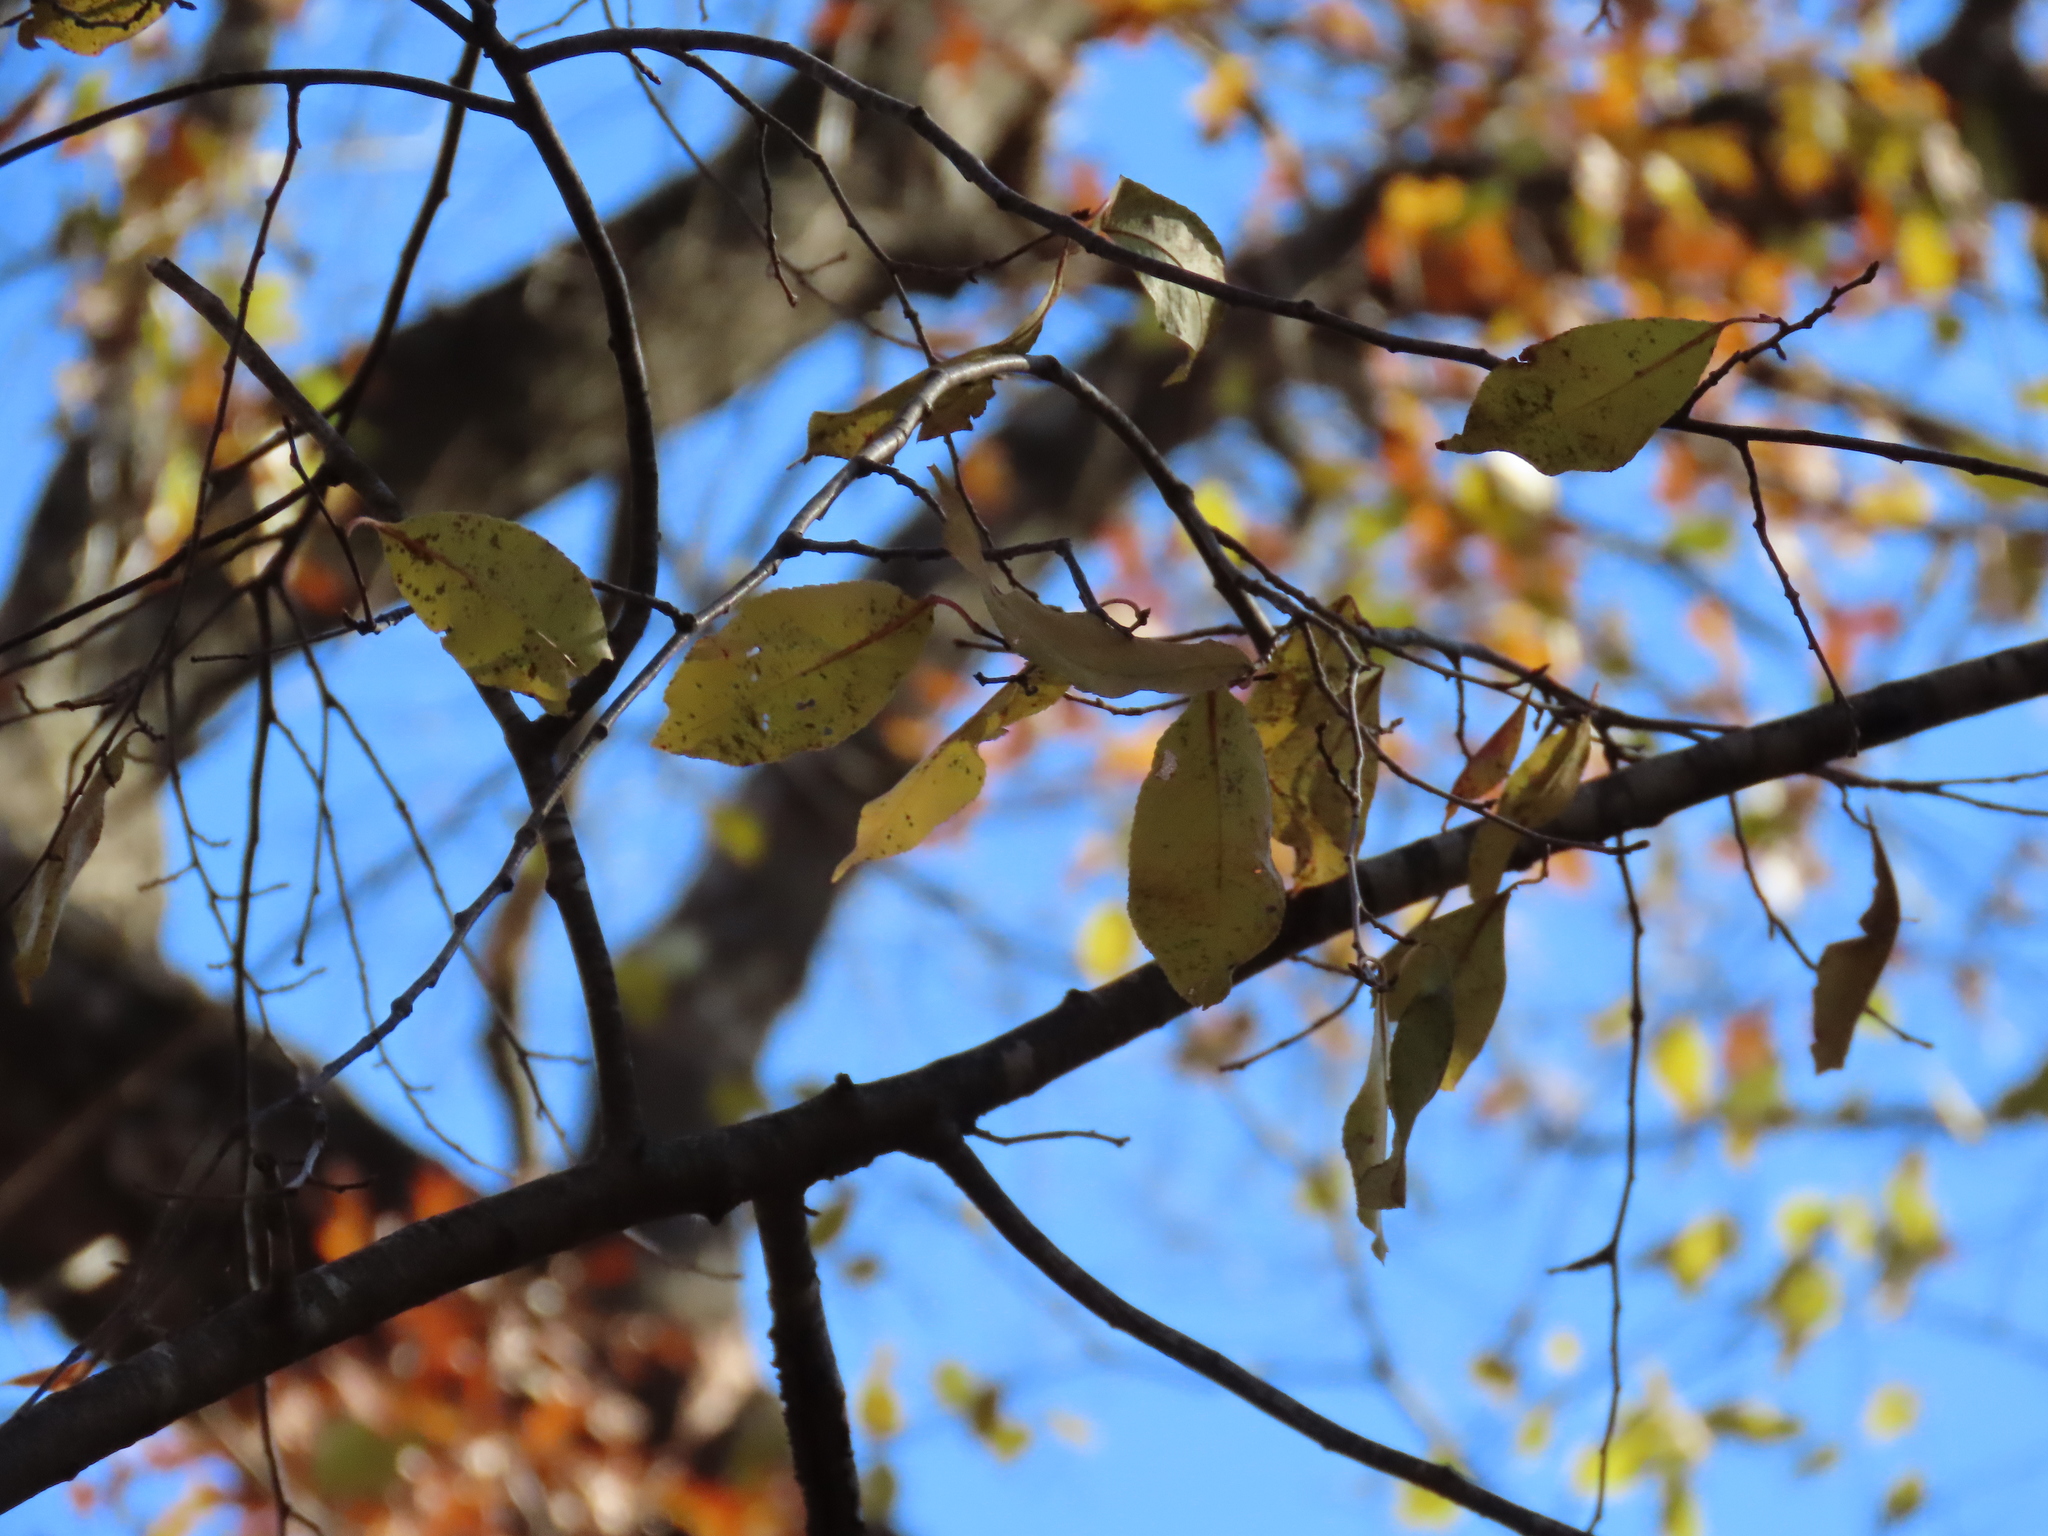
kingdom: Plantae
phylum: Tracheophyta
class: Magnoliopsida
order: Rosales
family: Rosaceae
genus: Prunus
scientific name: Prunus serotina
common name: Black cherry
